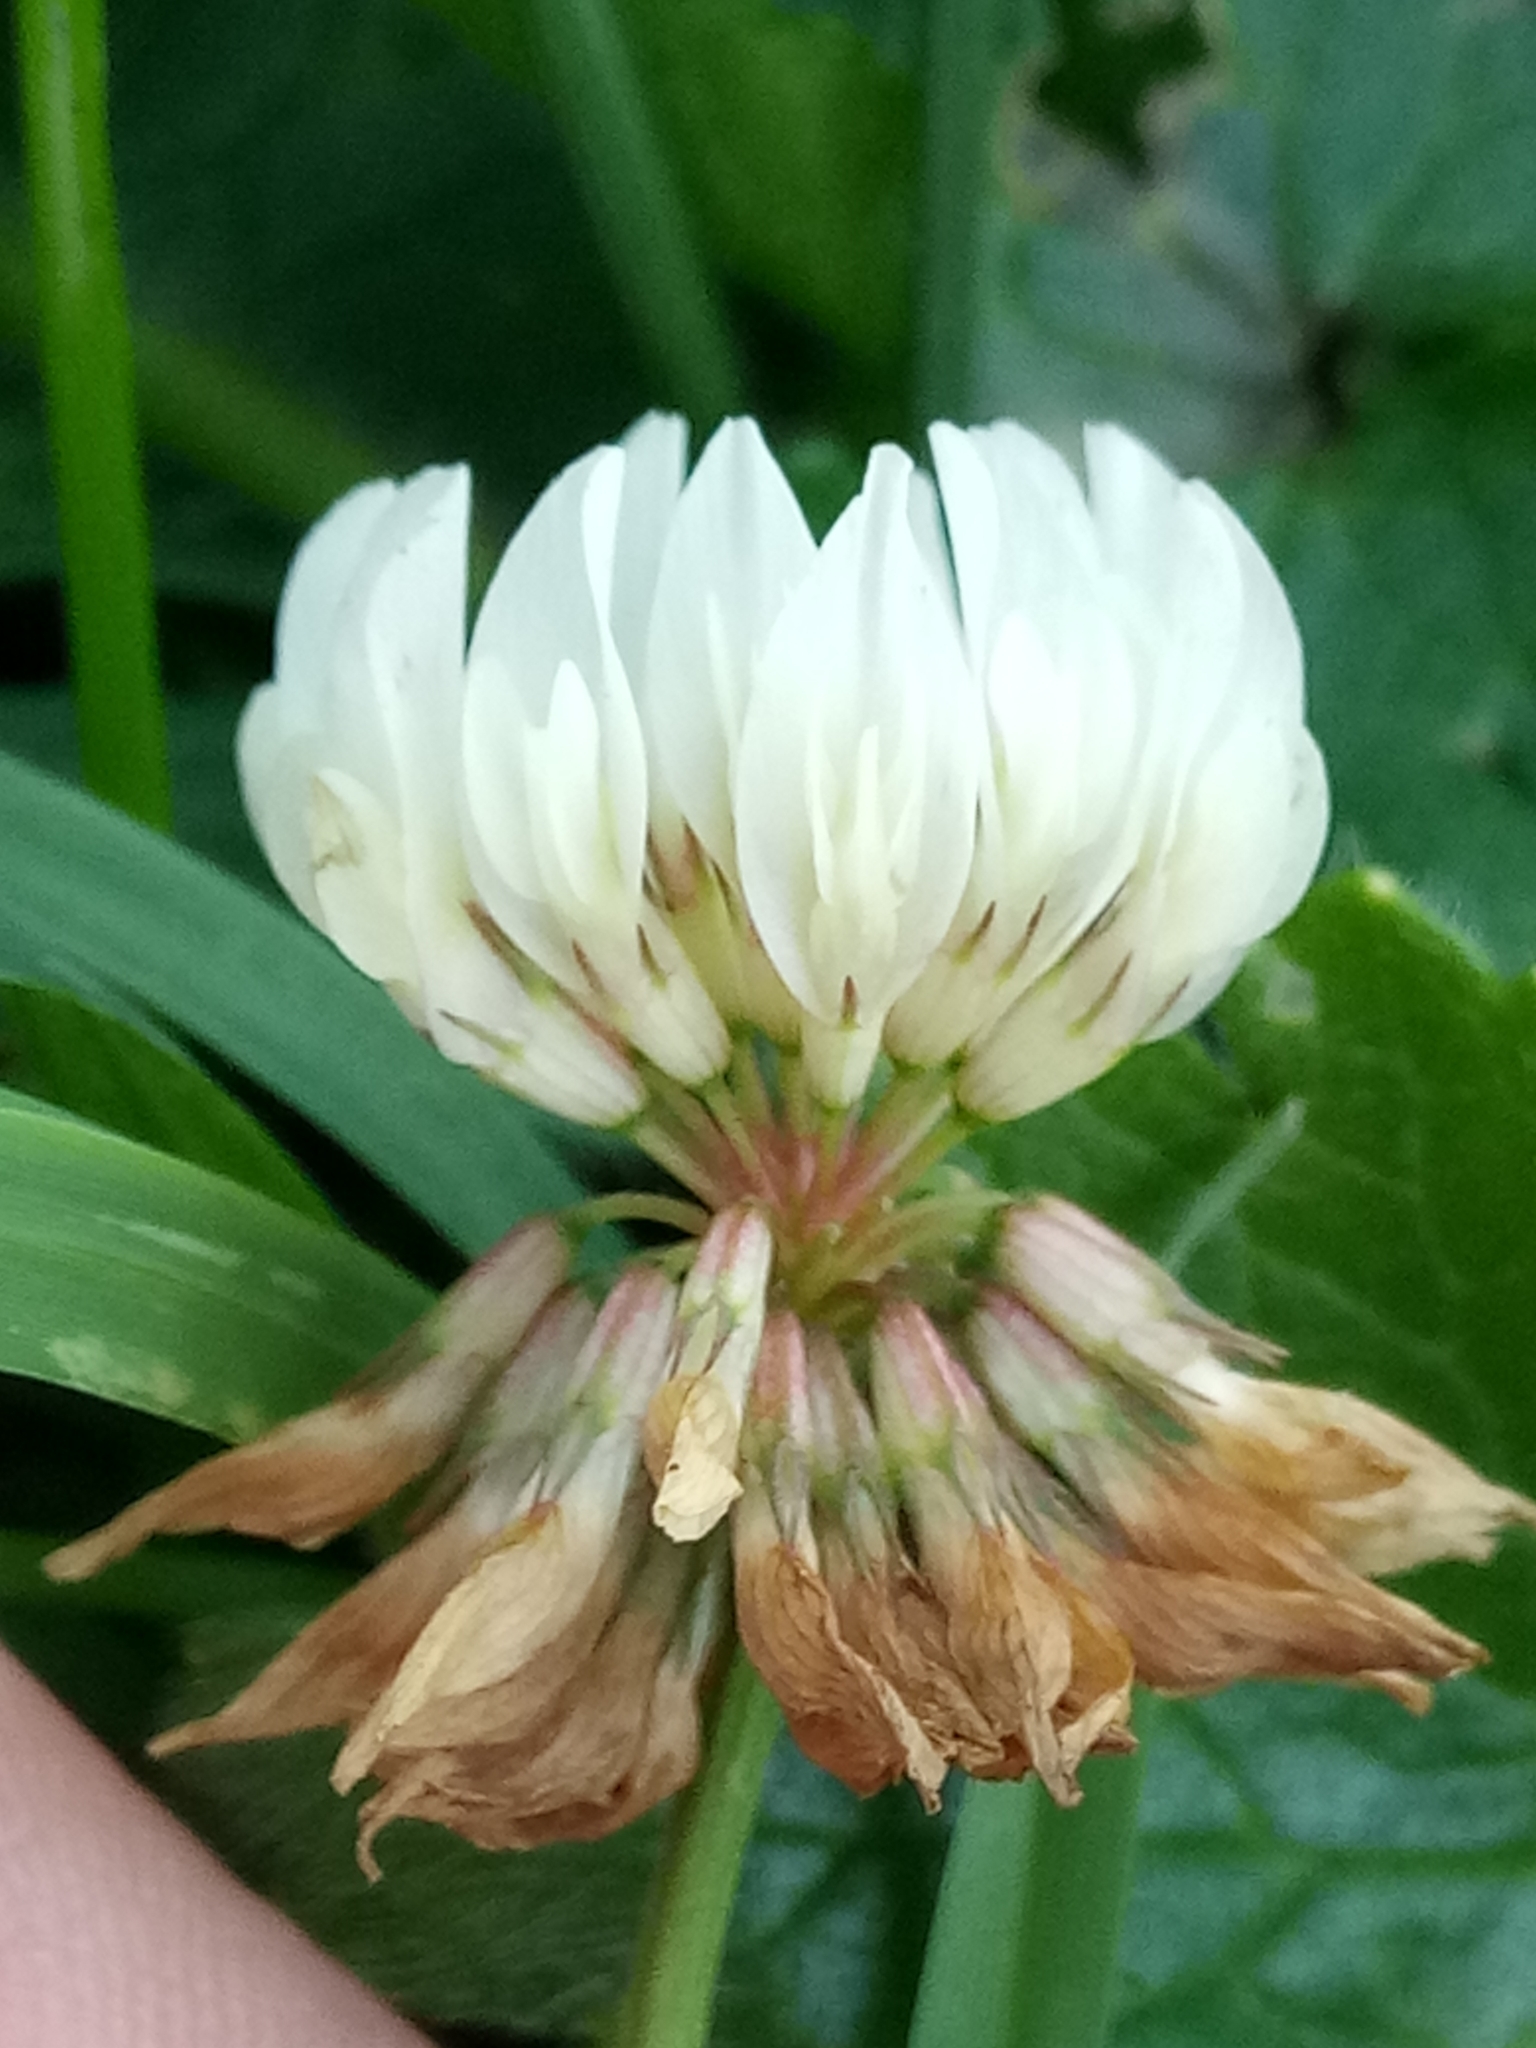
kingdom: Plantae
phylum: Tracheophyta
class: Magnoliopsida
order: Fabales
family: Fabaceae
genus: Trifolium
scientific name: Trifolium repens
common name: White clover
